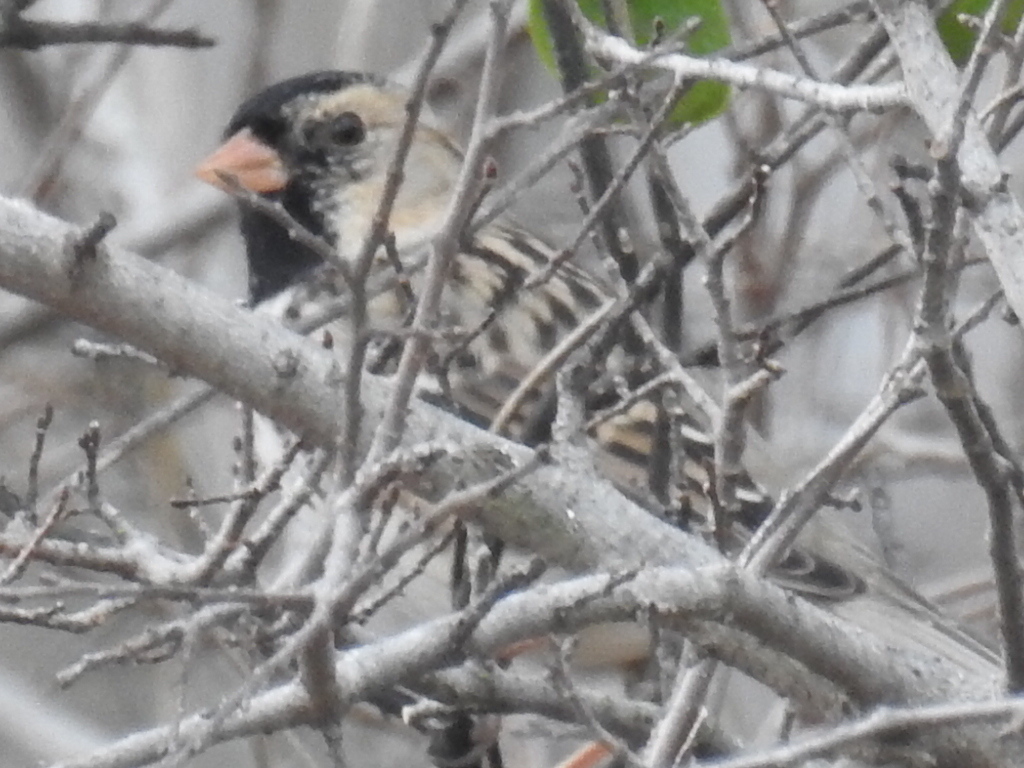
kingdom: Animalia
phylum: Chordata
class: Aves
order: Passeriformes
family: Passerellidae
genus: Zonotrichia
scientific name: Zonotrichia querula
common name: Harris's sparrow
